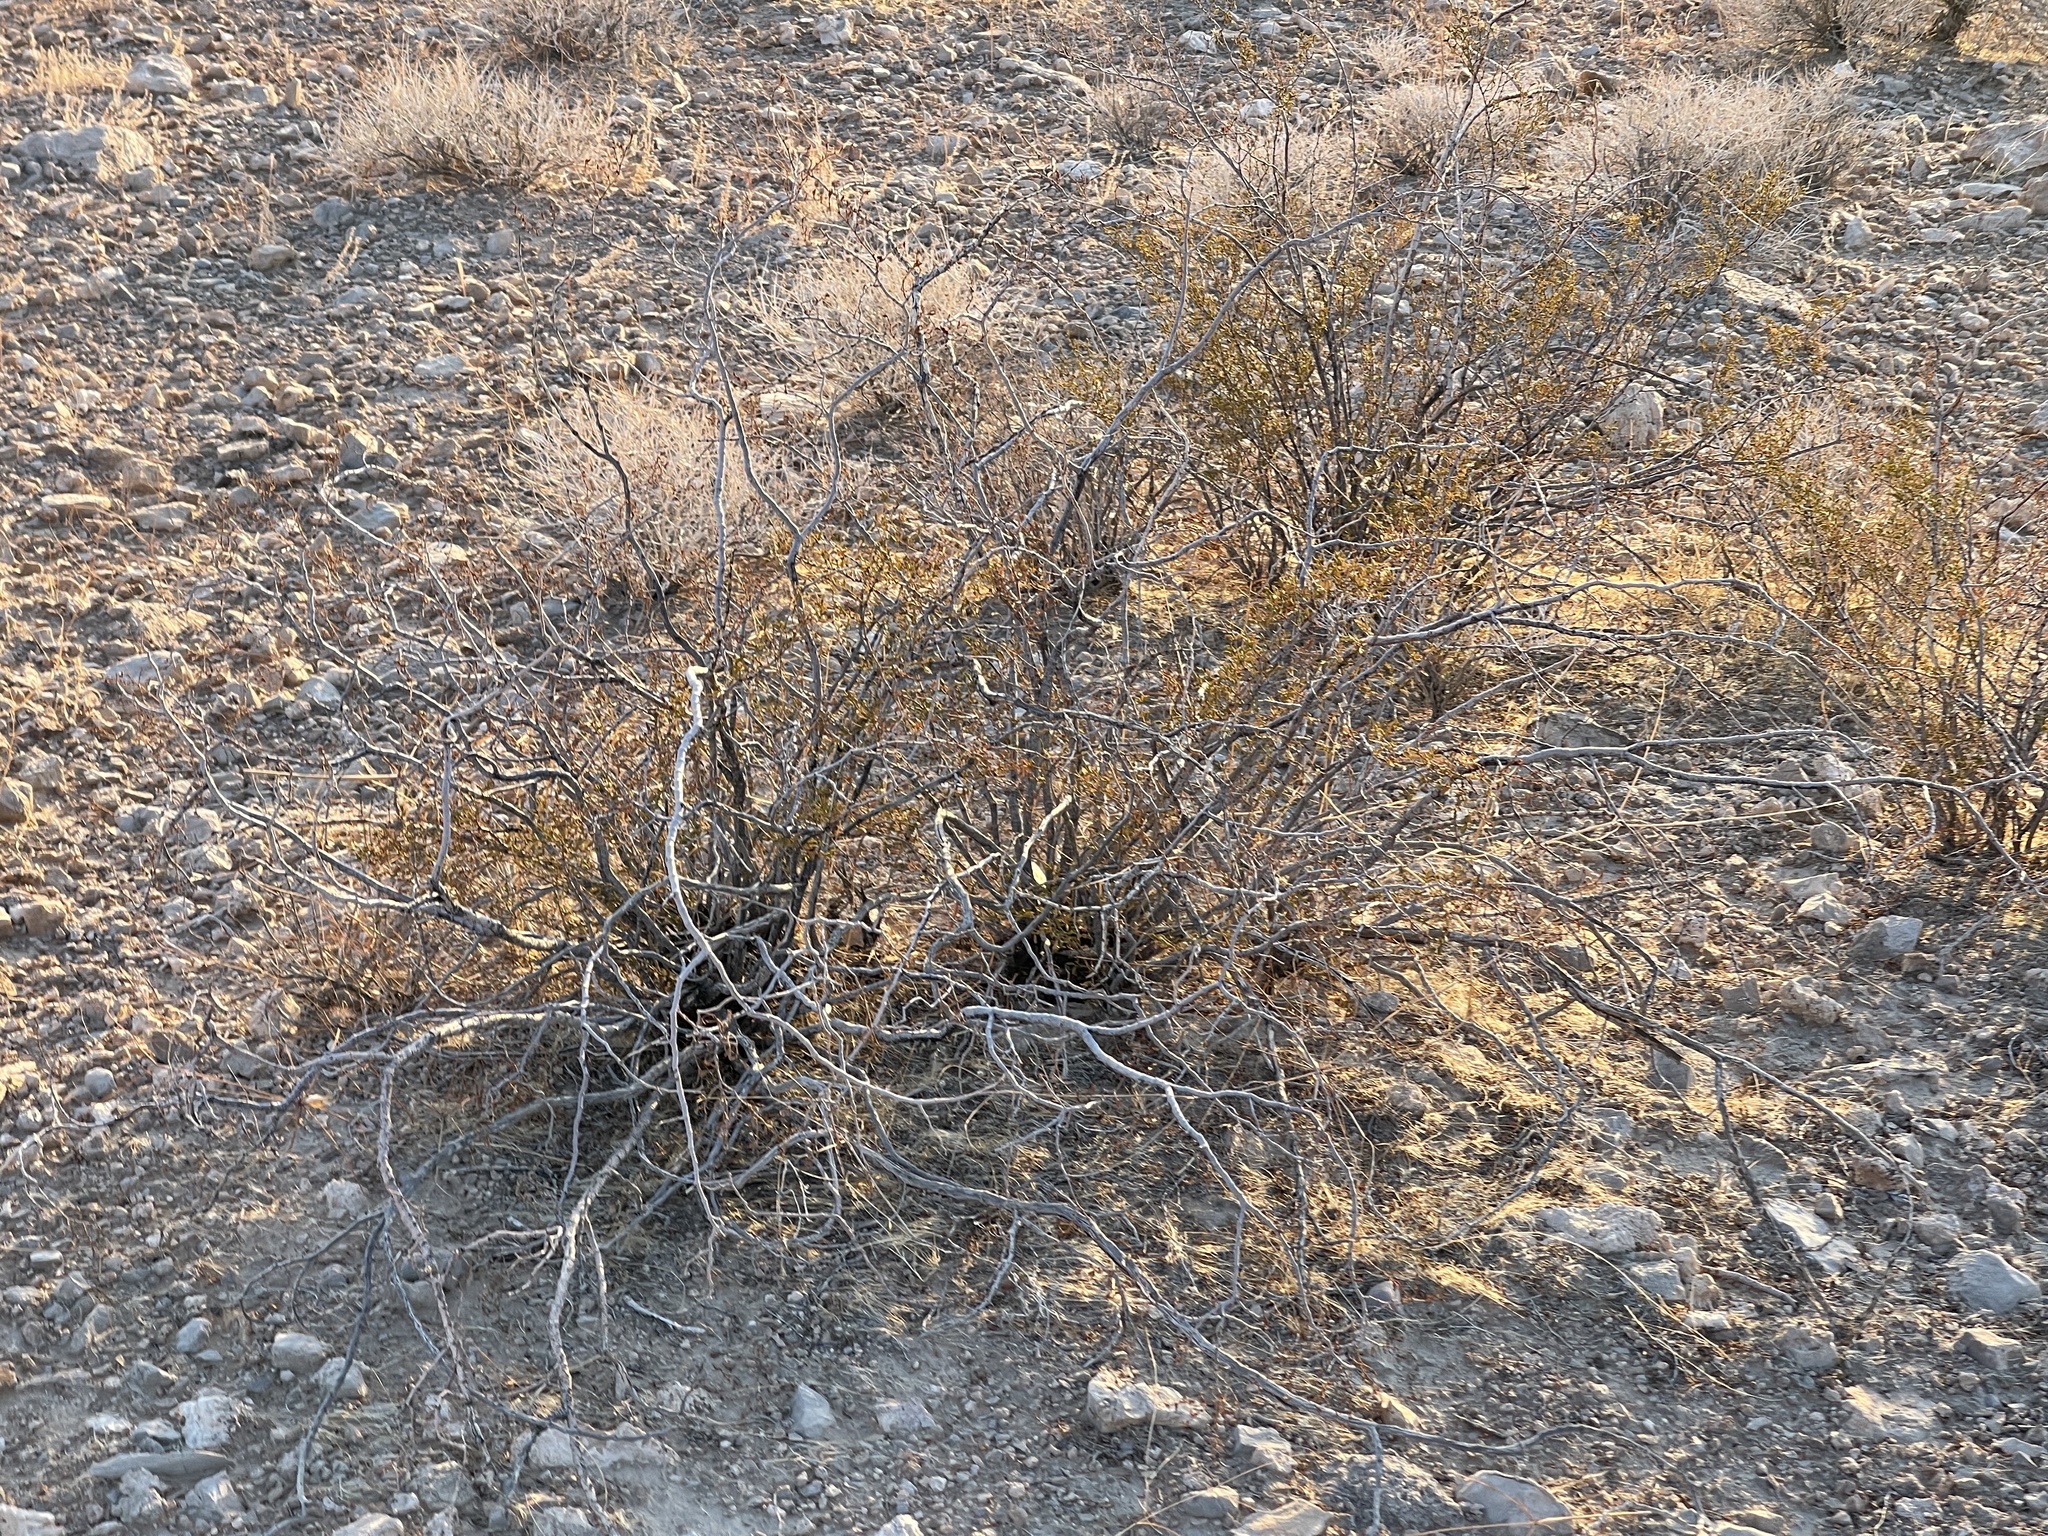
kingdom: Plantae
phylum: Tracheophyta
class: Magnoliopsida
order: Zygophyllales
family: Zygophyllaceae
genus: Larrea
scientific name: Larrea tridentata
